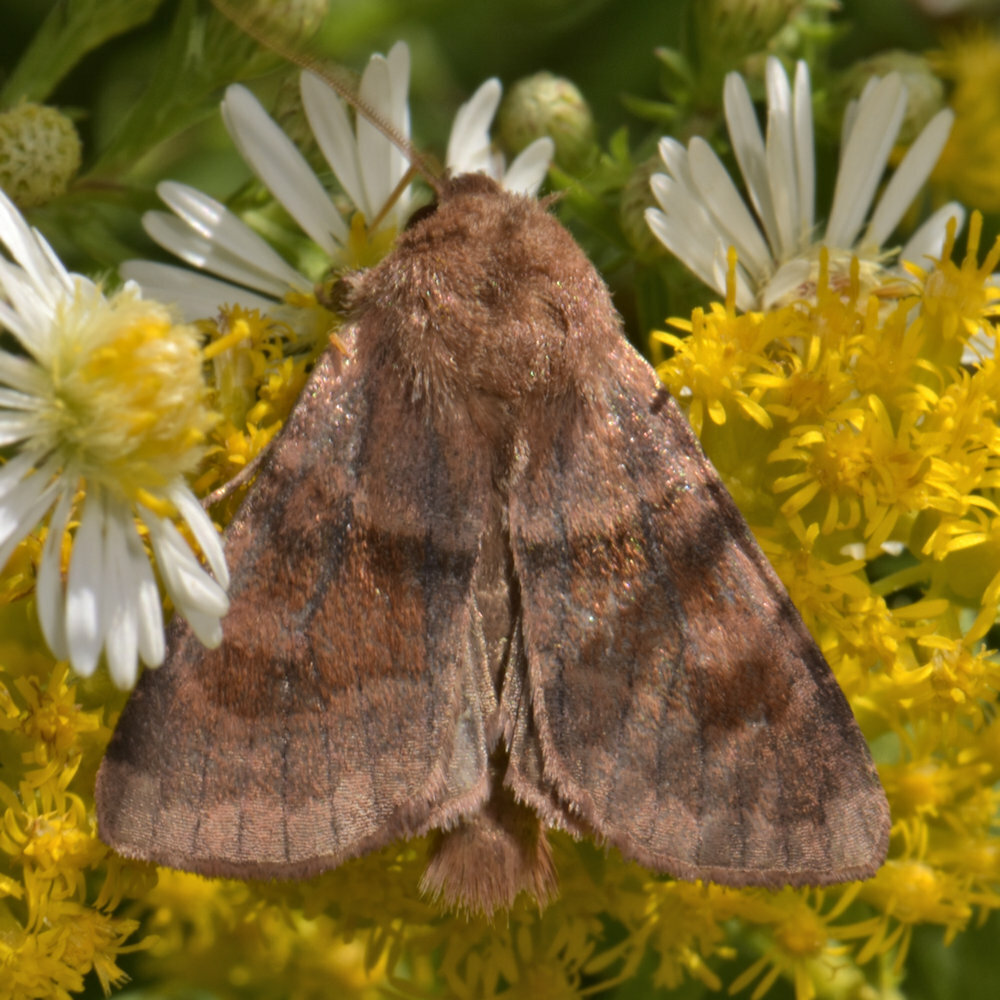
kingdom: Animalia
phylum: Arthropoda
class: Insecta
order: Lepidoptera
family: Noctuidae
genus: Nephelodes
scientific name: Nephelodes minians
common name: Bronzed cutworm
